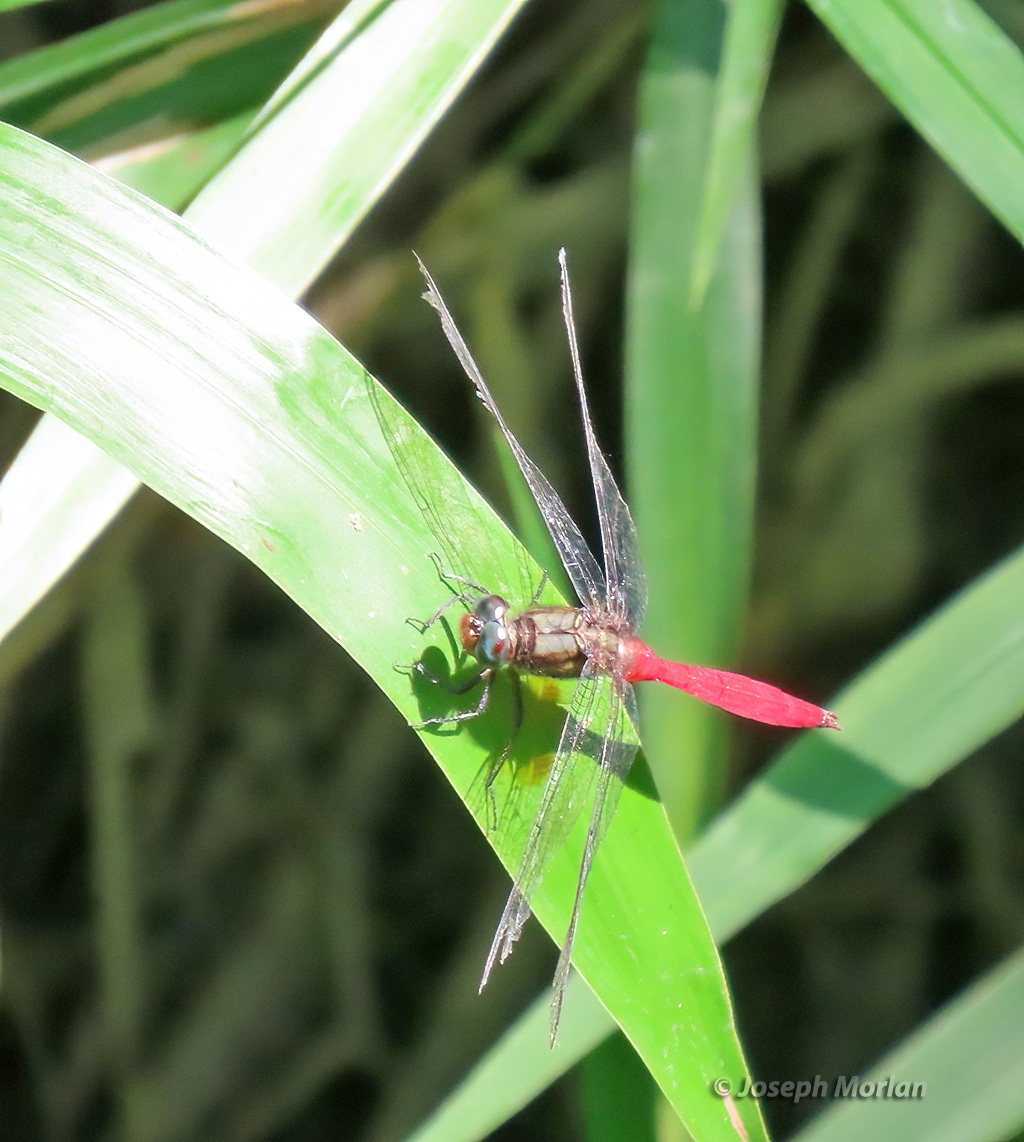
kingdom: Animalia
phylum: Arthropoda
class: Insecta
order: Odonata
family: Libellulidae
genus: Orthetrum
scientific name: Orthetrum villosovittatum
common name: Firery skimmer
